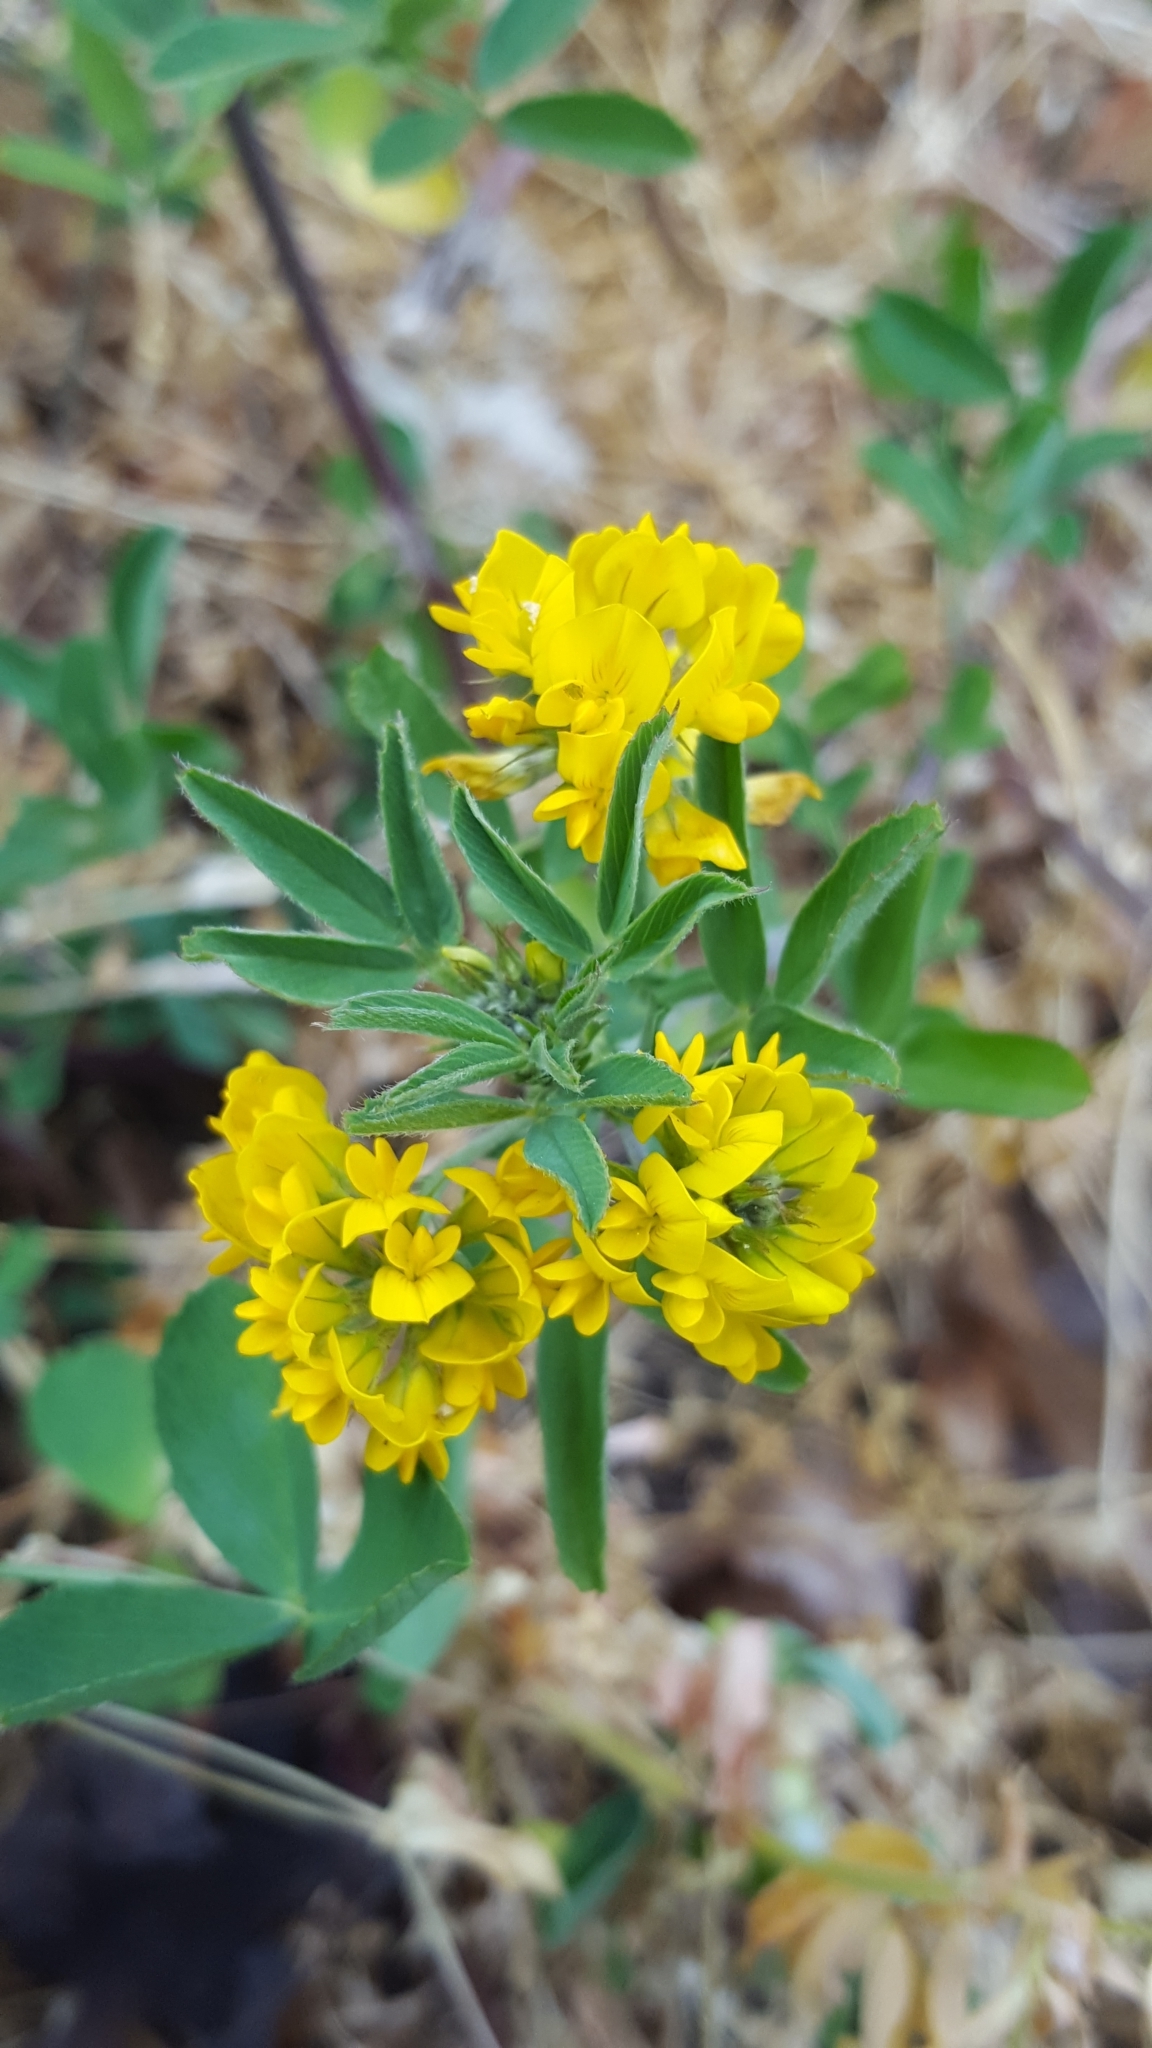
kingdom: Plantae
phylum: Tracheophyta
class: Magnoliopsida
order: Fabales
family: Fabaceae
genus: Medicago
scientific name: Medicago falcata
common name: Sickle medick
